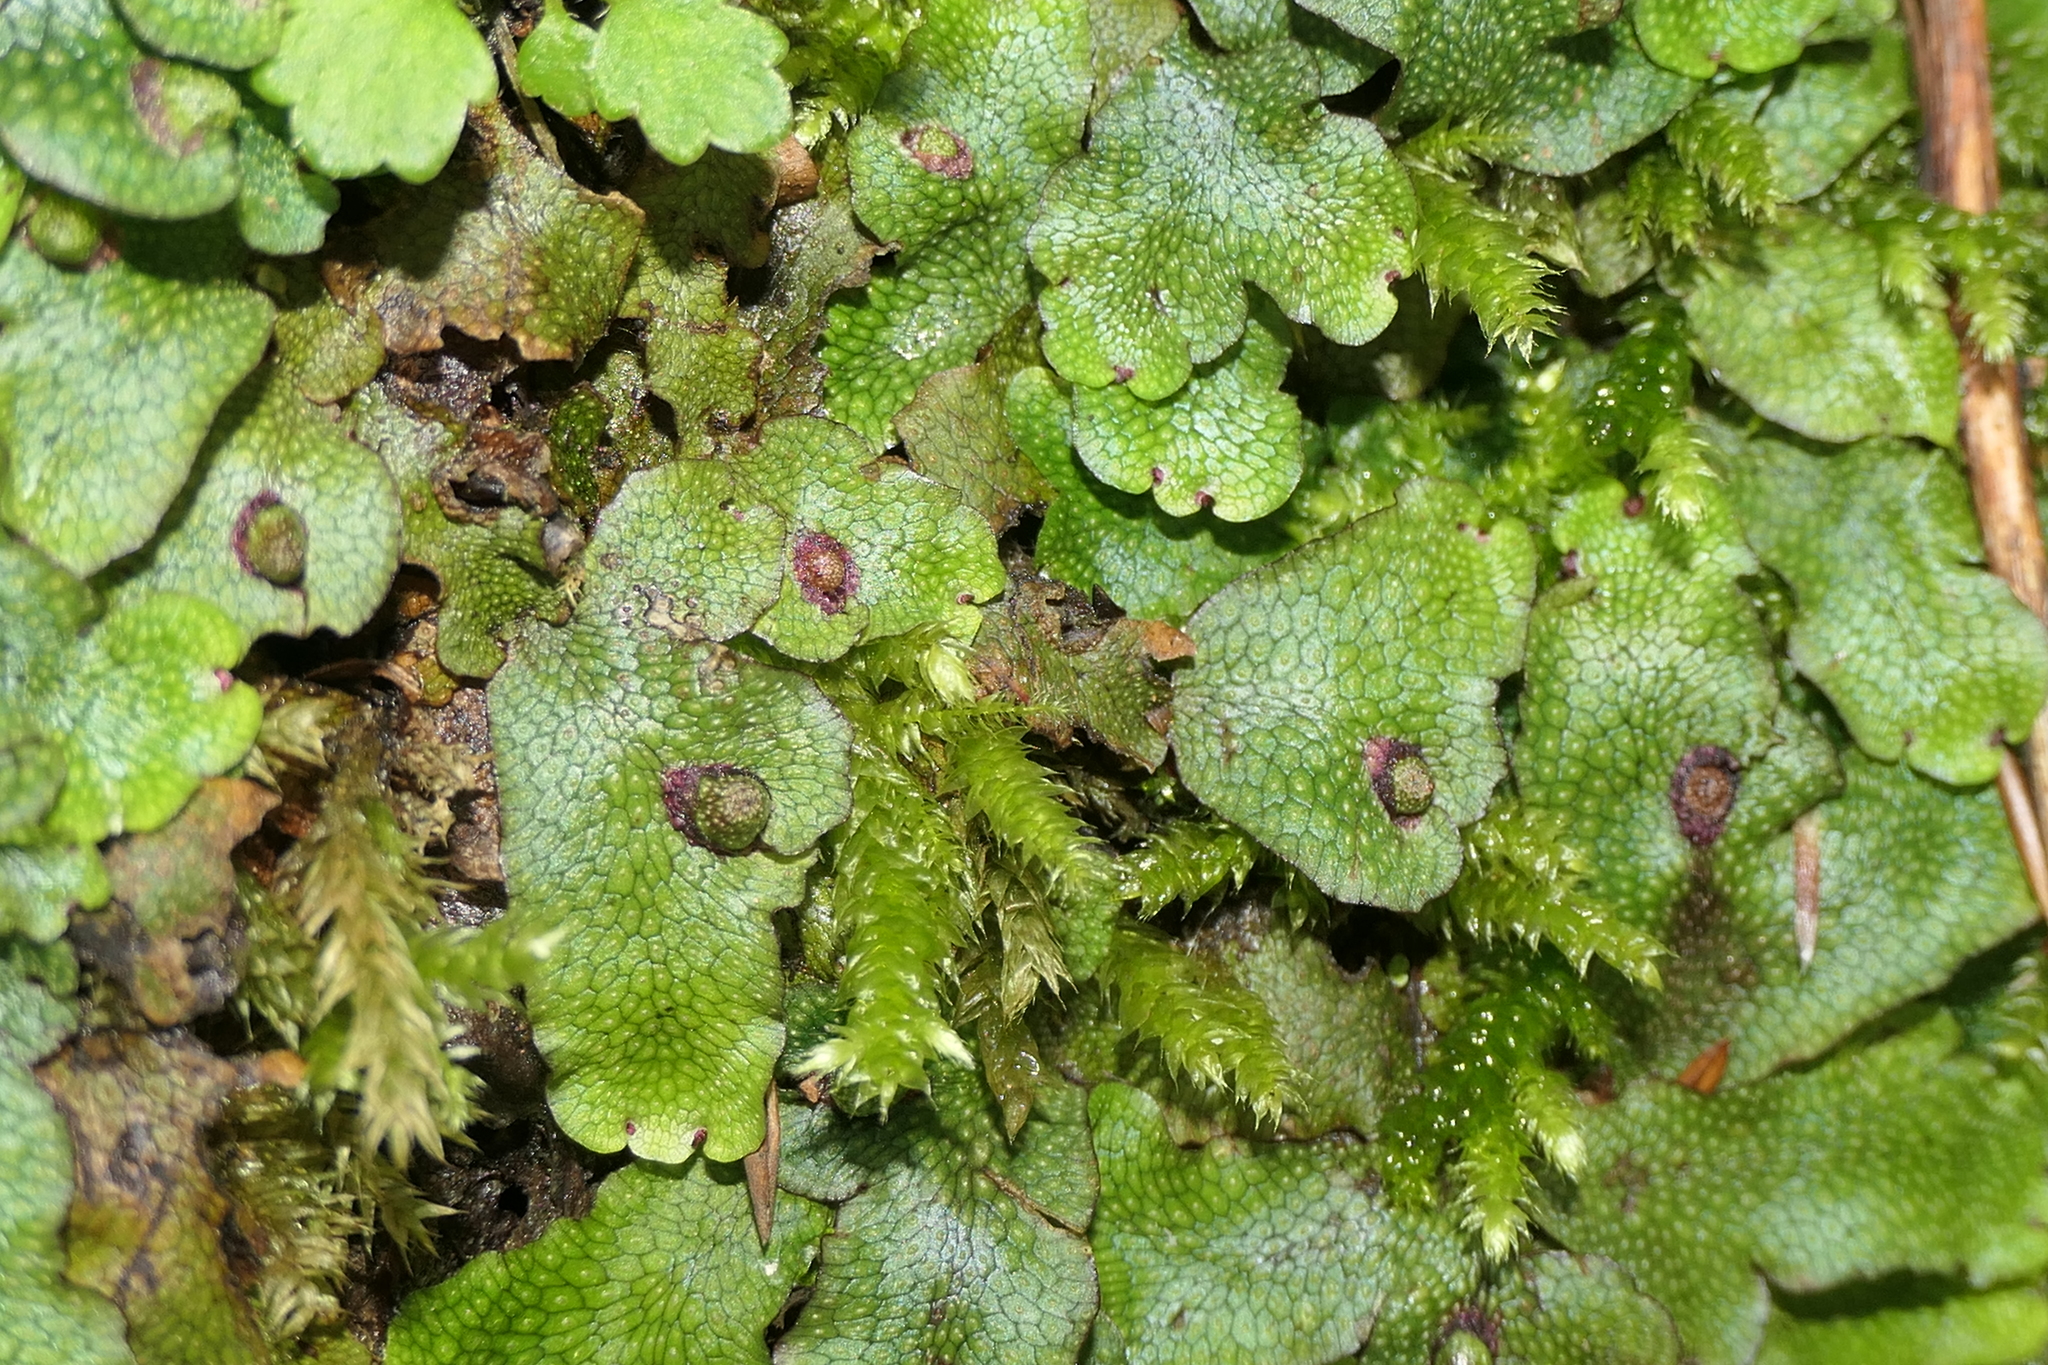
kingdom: Plantae
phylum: Marchantiophyta
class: Marchantiopsida
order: Marchantiales
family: Conocephalaceae
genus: Conocephalum
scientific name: Conocephalum salebrosum
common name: Cat-tongue liverwort
